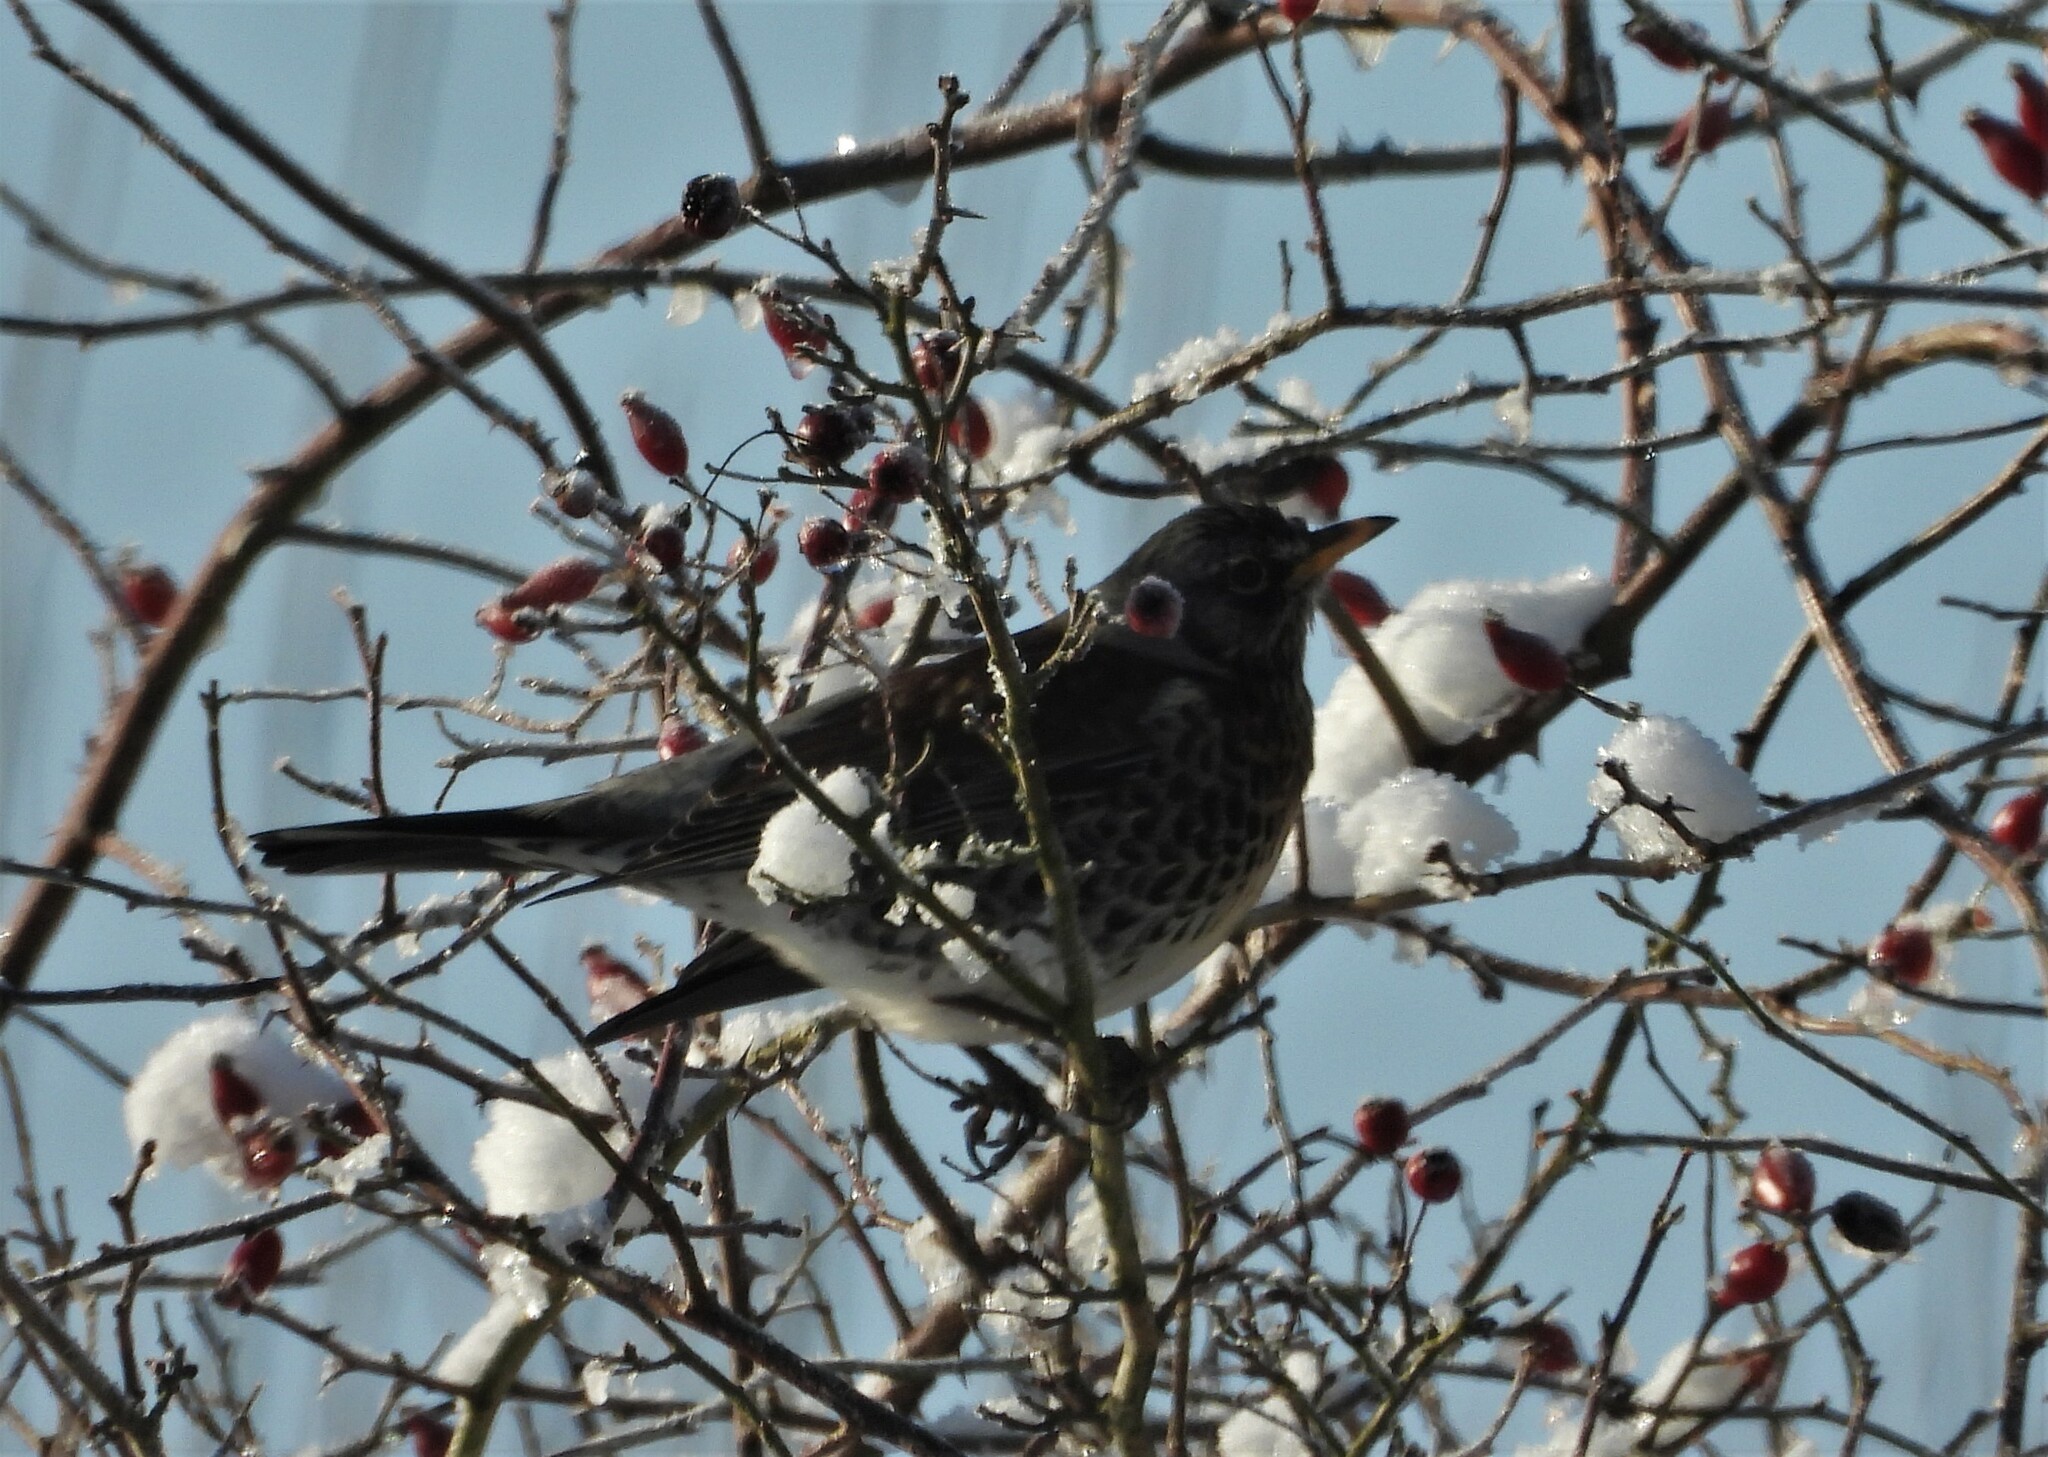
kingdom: Animalia
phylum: Chordata
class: Aves
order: Passeriformes
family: Turdidae
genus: Turdus
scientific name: Turdus pilaris
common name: Fieldfare
